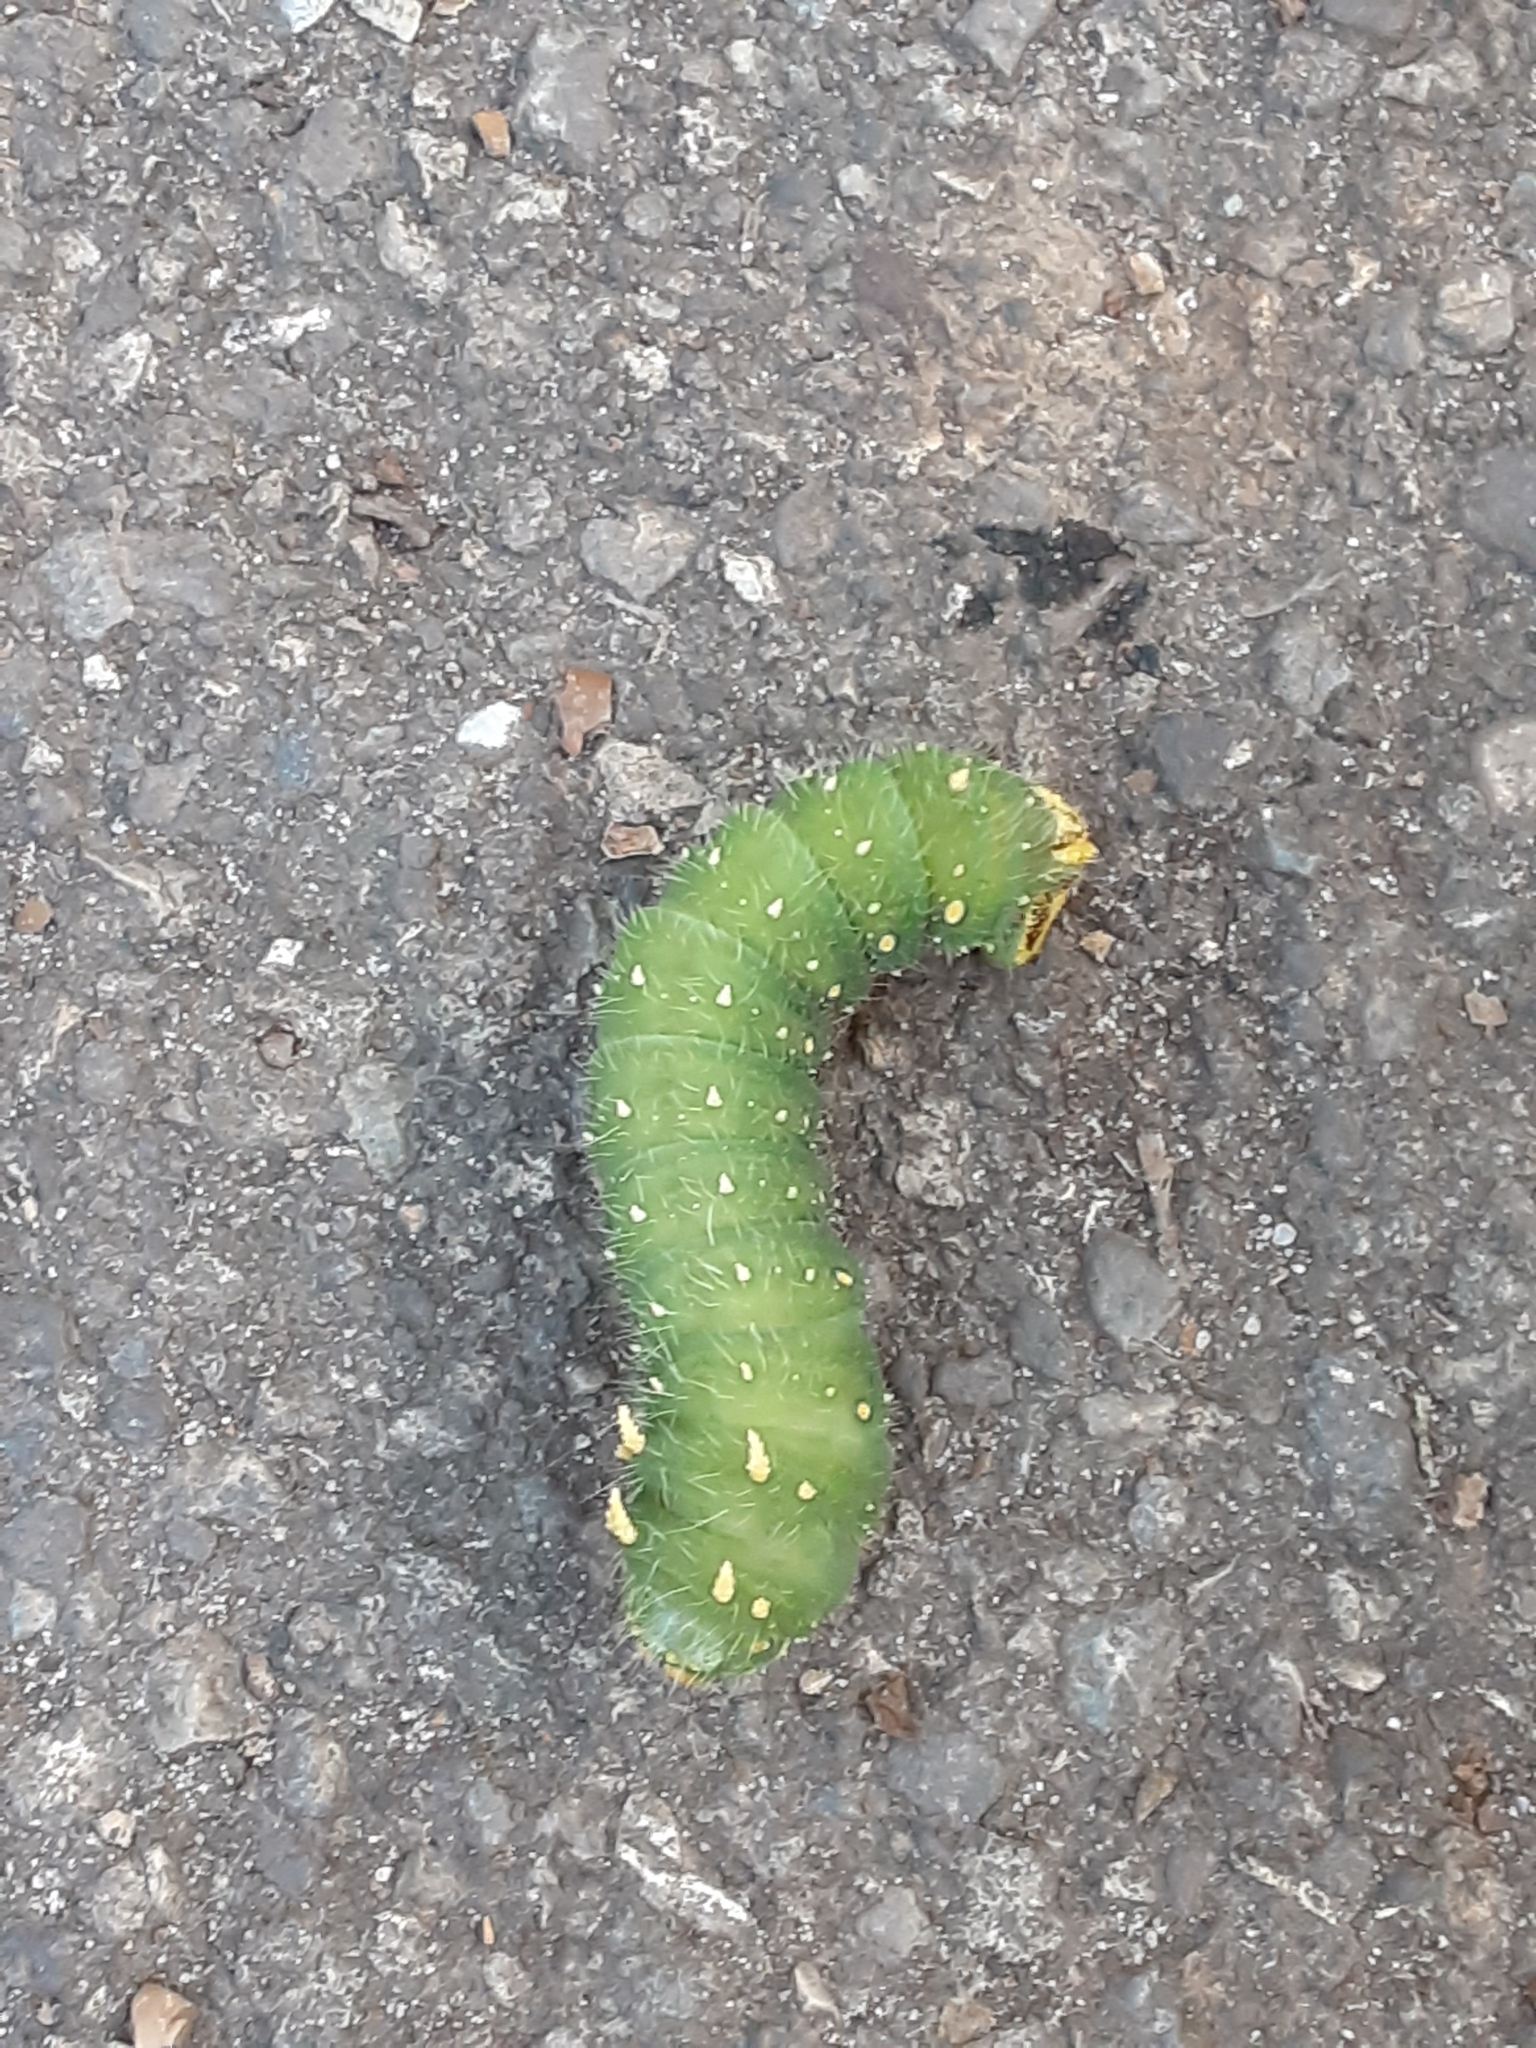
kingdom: Animalia
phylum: Arthropoda
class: Insecta
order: Lepidoptera
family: Saturniidae
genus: Eacles
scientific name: Eacles imperialis
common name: Imperial moth
